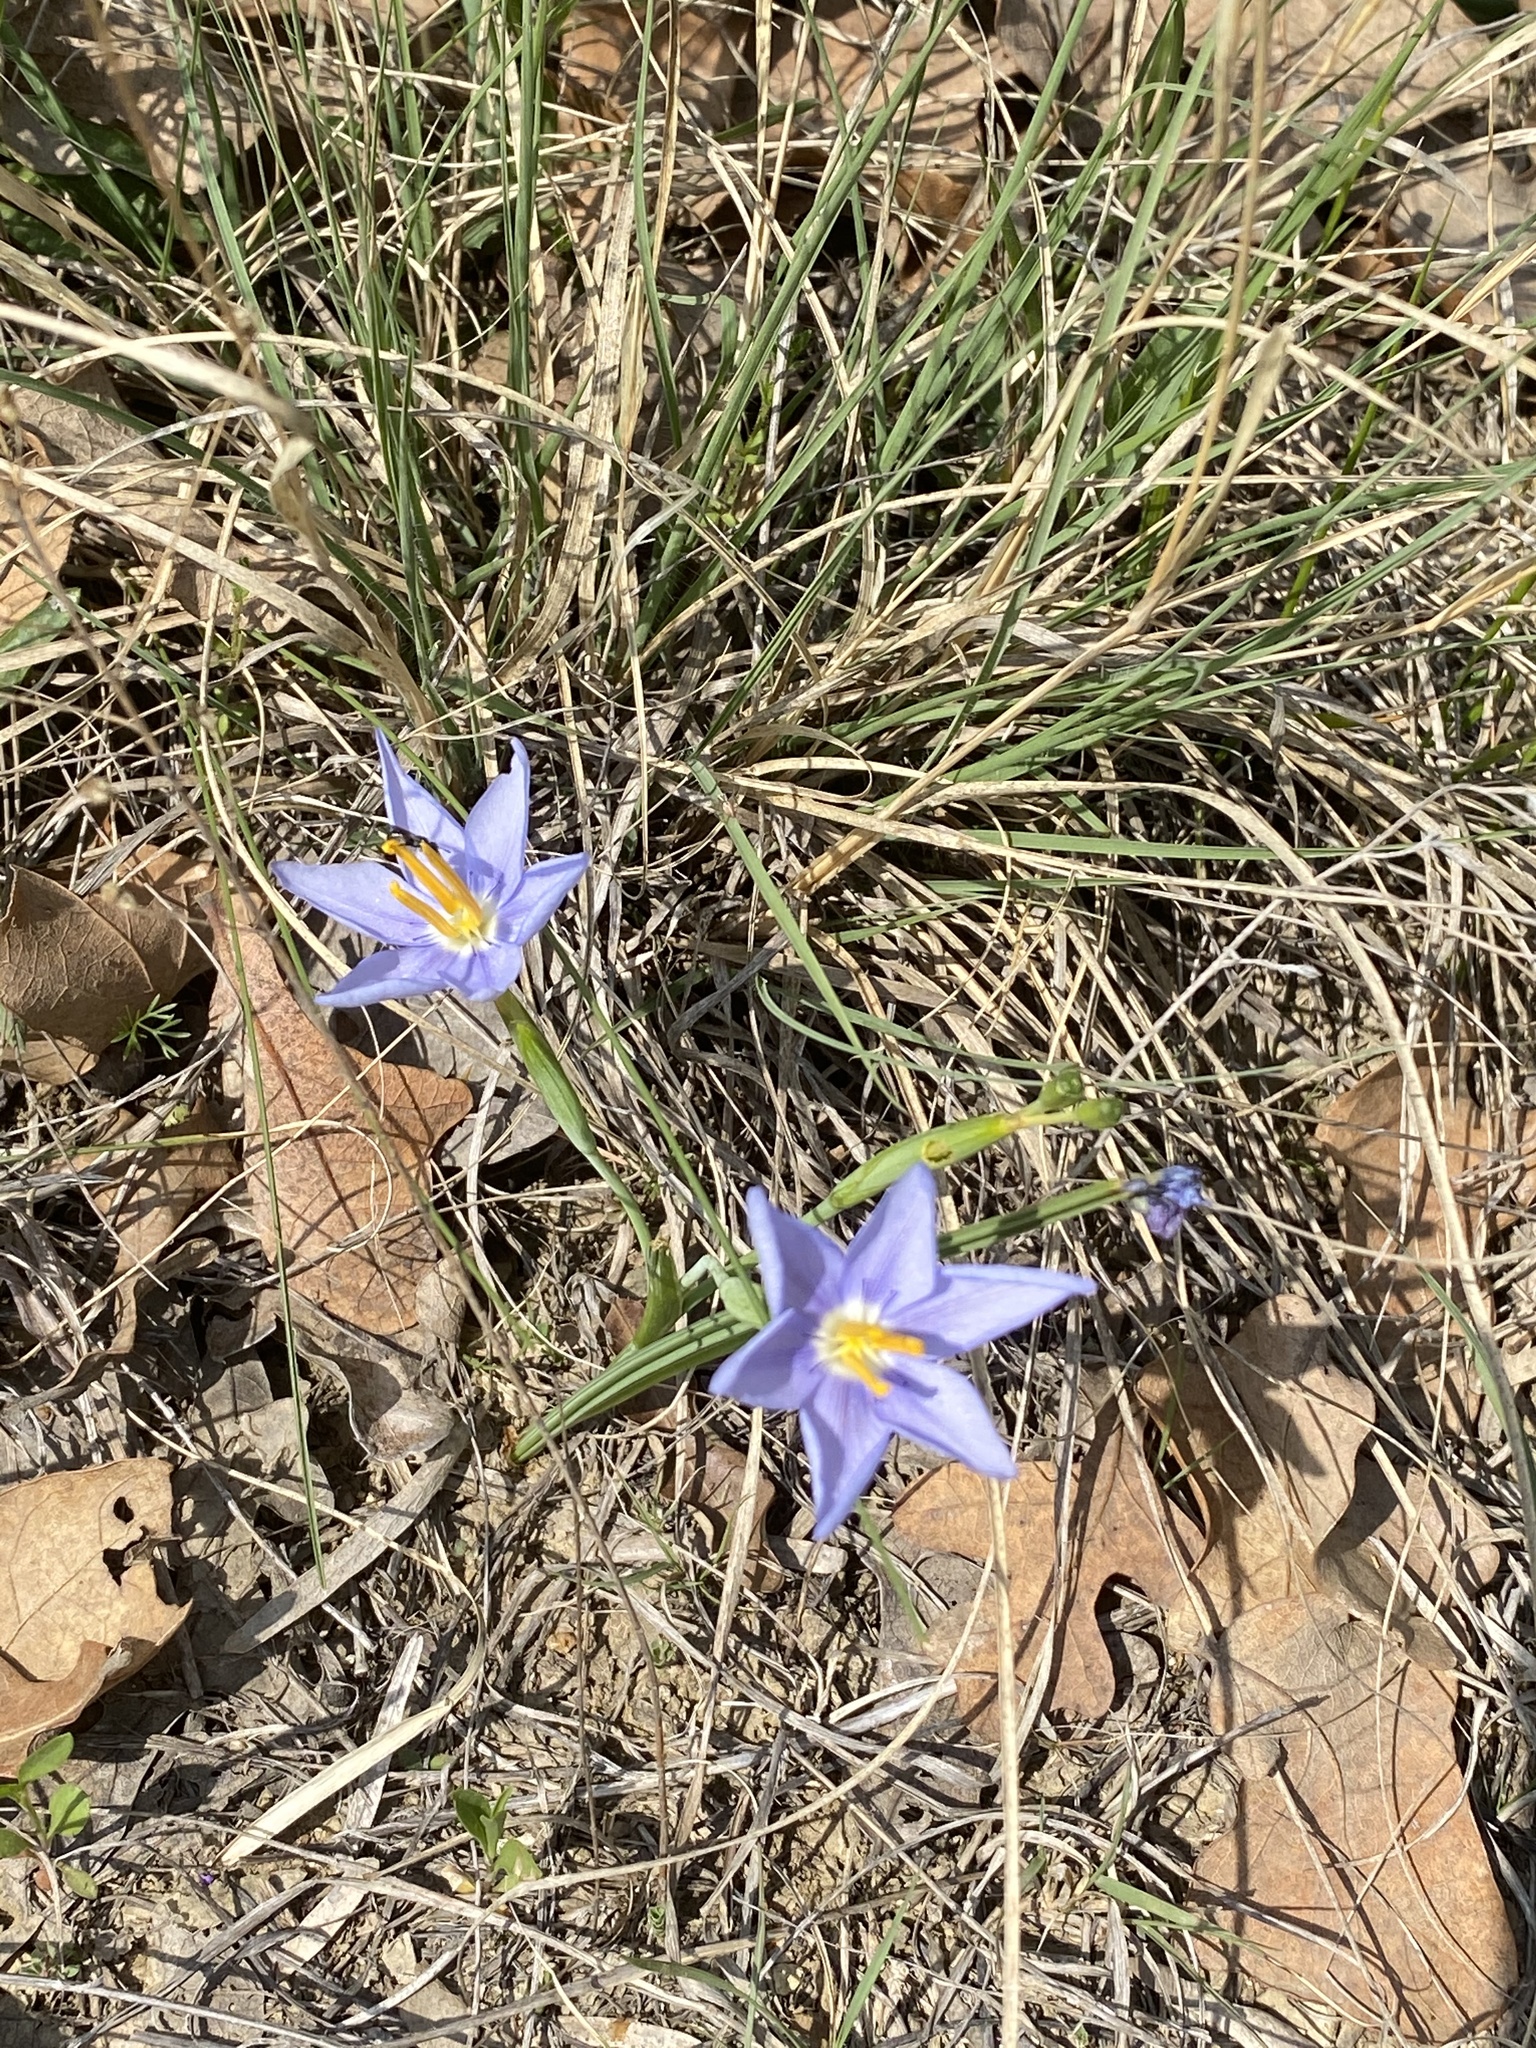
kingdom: Plantae
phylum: Tracheophyta
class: Liliopsida
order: Asparagales
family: Iridaceae
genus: Nemastylis
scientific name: Nemastylis geminiflora
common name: Prairie celestial
